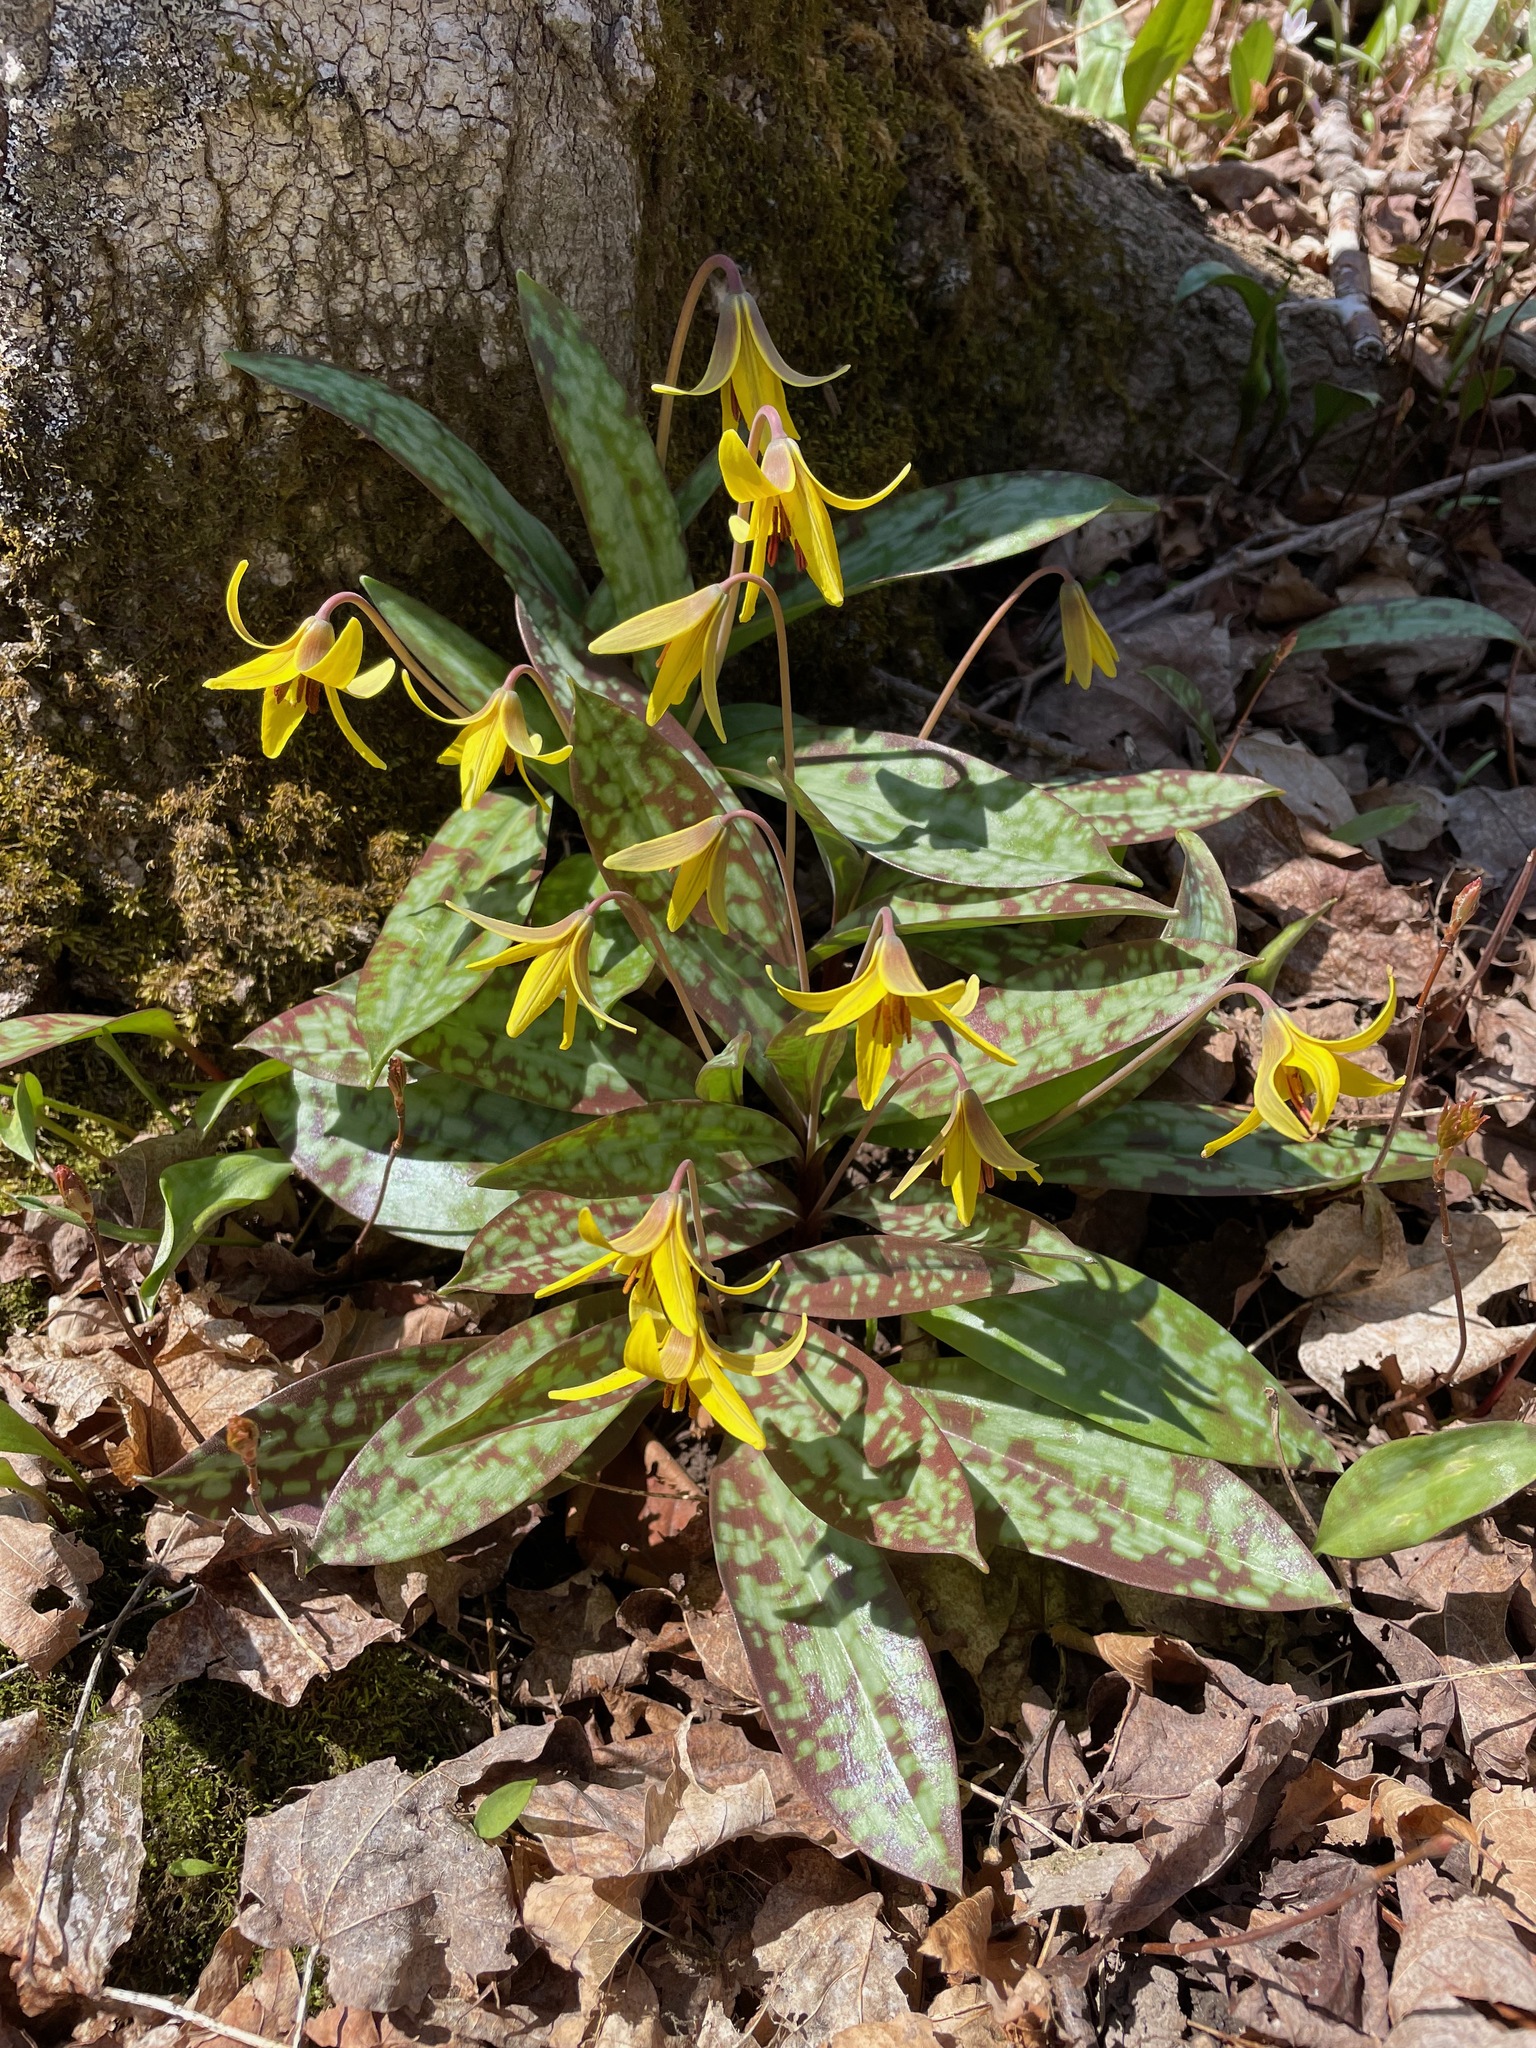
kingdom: Plantae
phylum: Tracheophyta
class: Liliopsida
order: Liliales
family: Liliaceae
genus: Erythronium
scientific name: Erythronium americanum
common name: Yellow adder's-tongue
